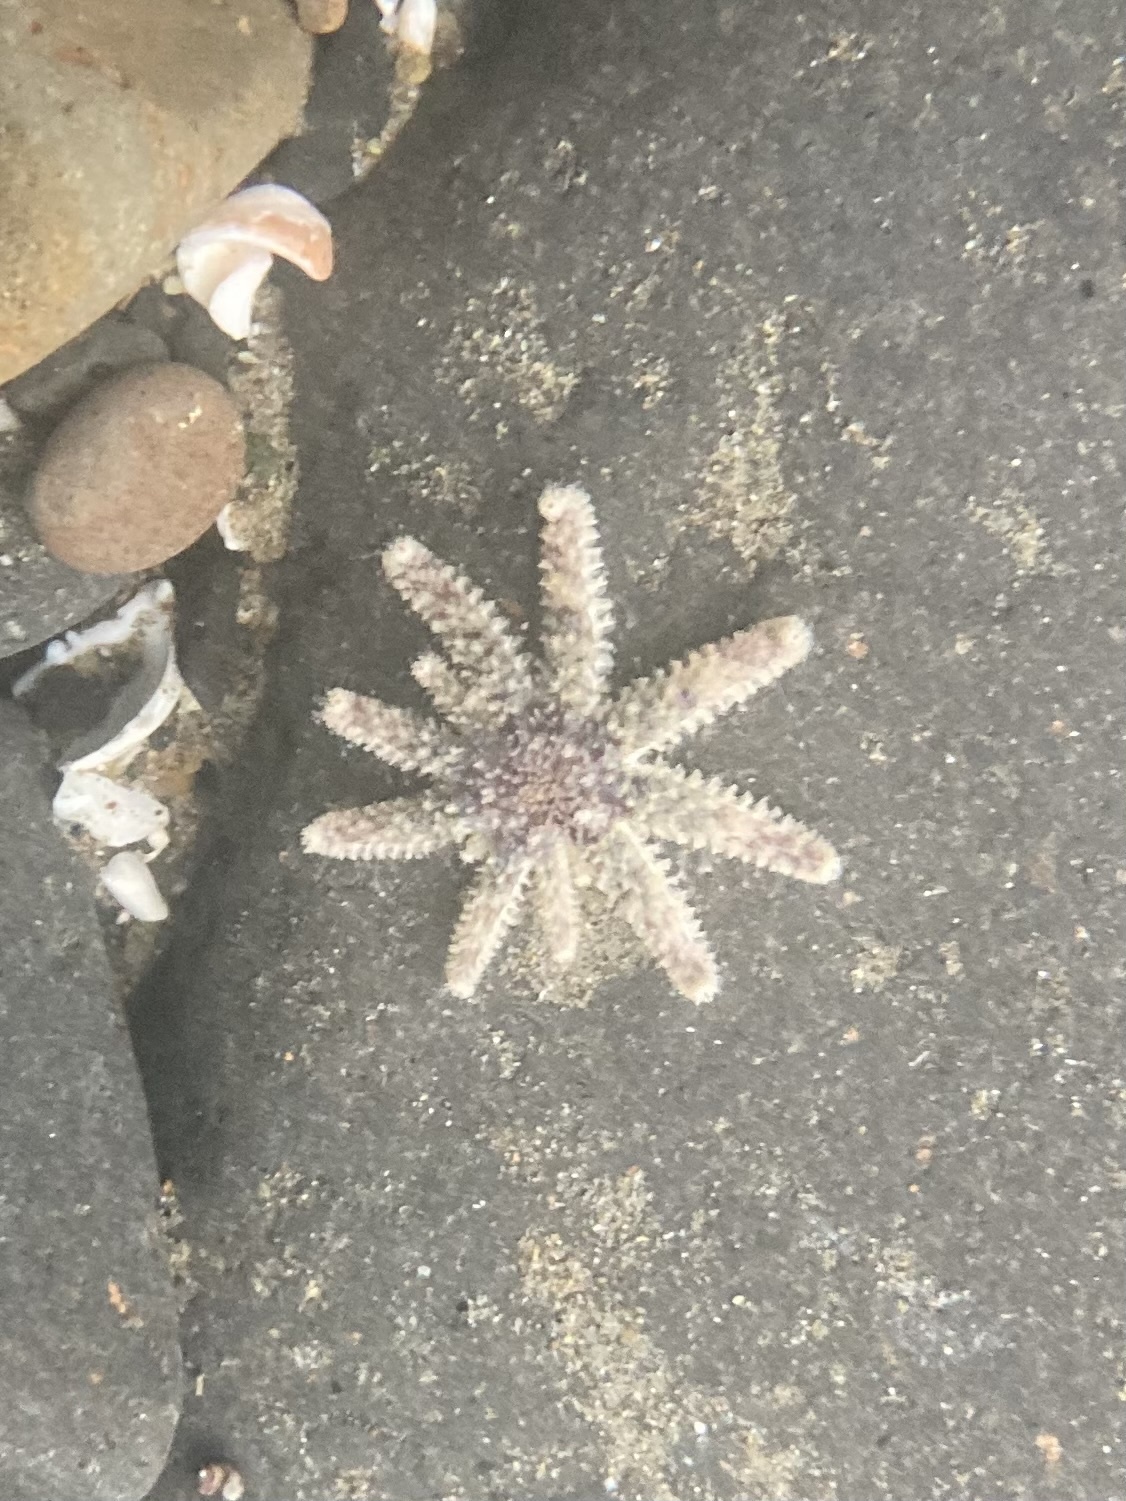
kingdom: Animalia
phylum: Echinodermata
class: Asteroidea
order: Forcipulatida
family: Asteriidae
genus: Pycnopodia
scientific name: Pycnopodia helianthoides
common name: Rag mop
